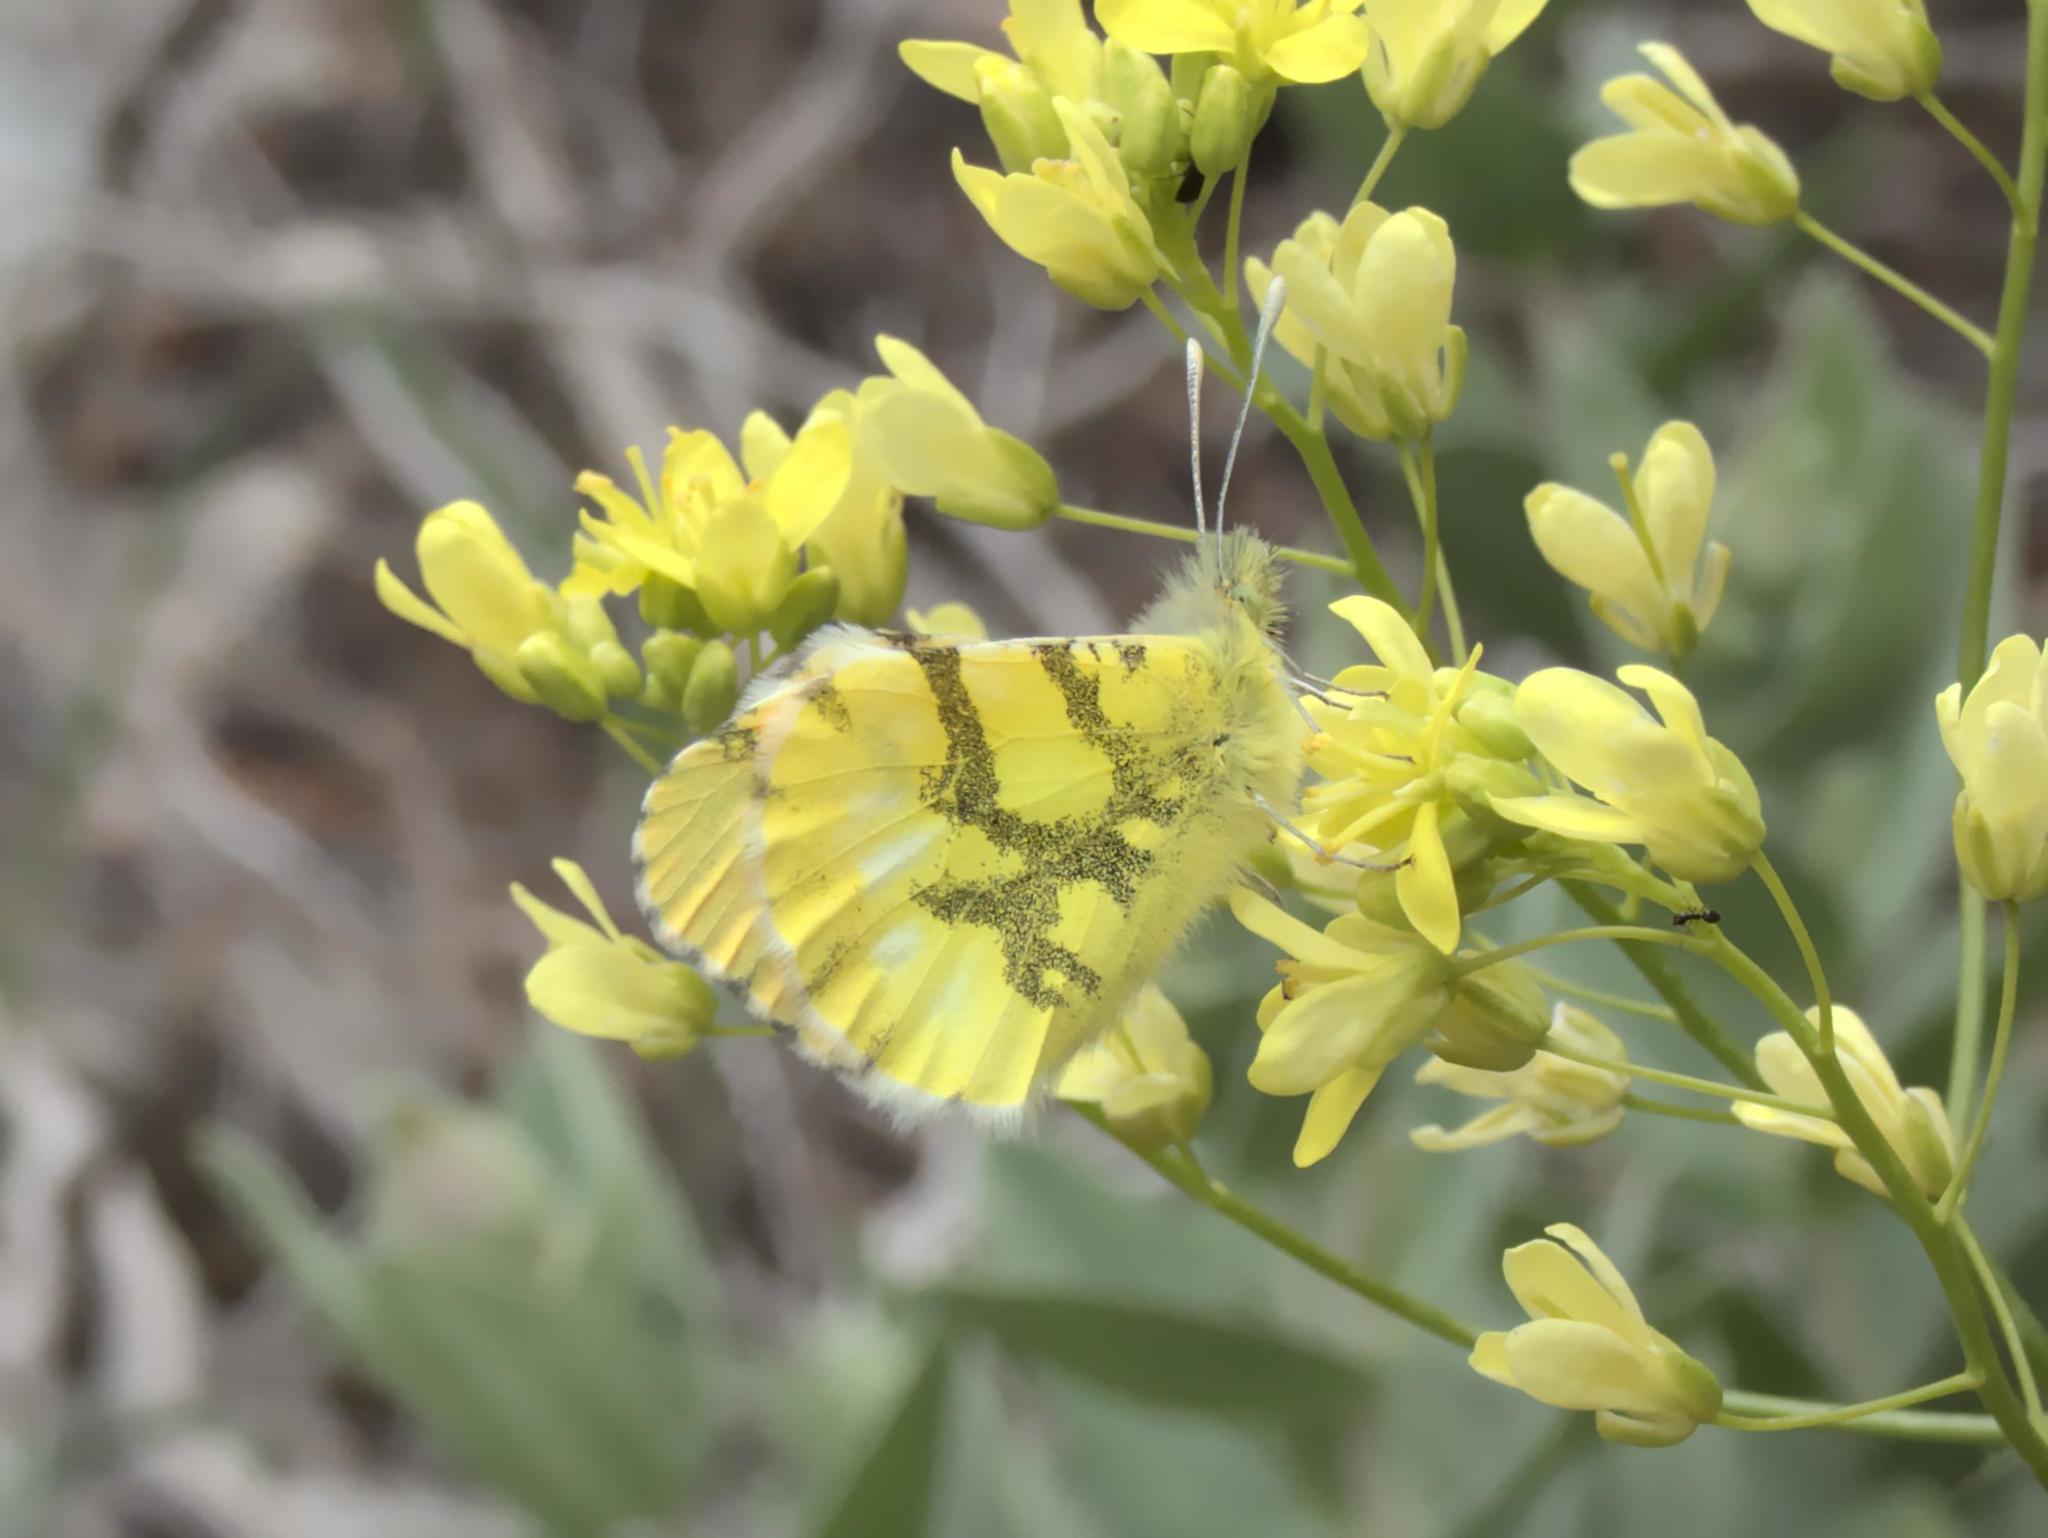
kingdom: Animalia
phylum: Arthropoda
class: Insecta
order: Lepidoptera
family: Pieridae
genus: Anthocharis
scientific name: Anthocharis euphenoides
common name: Provence orange-tip
